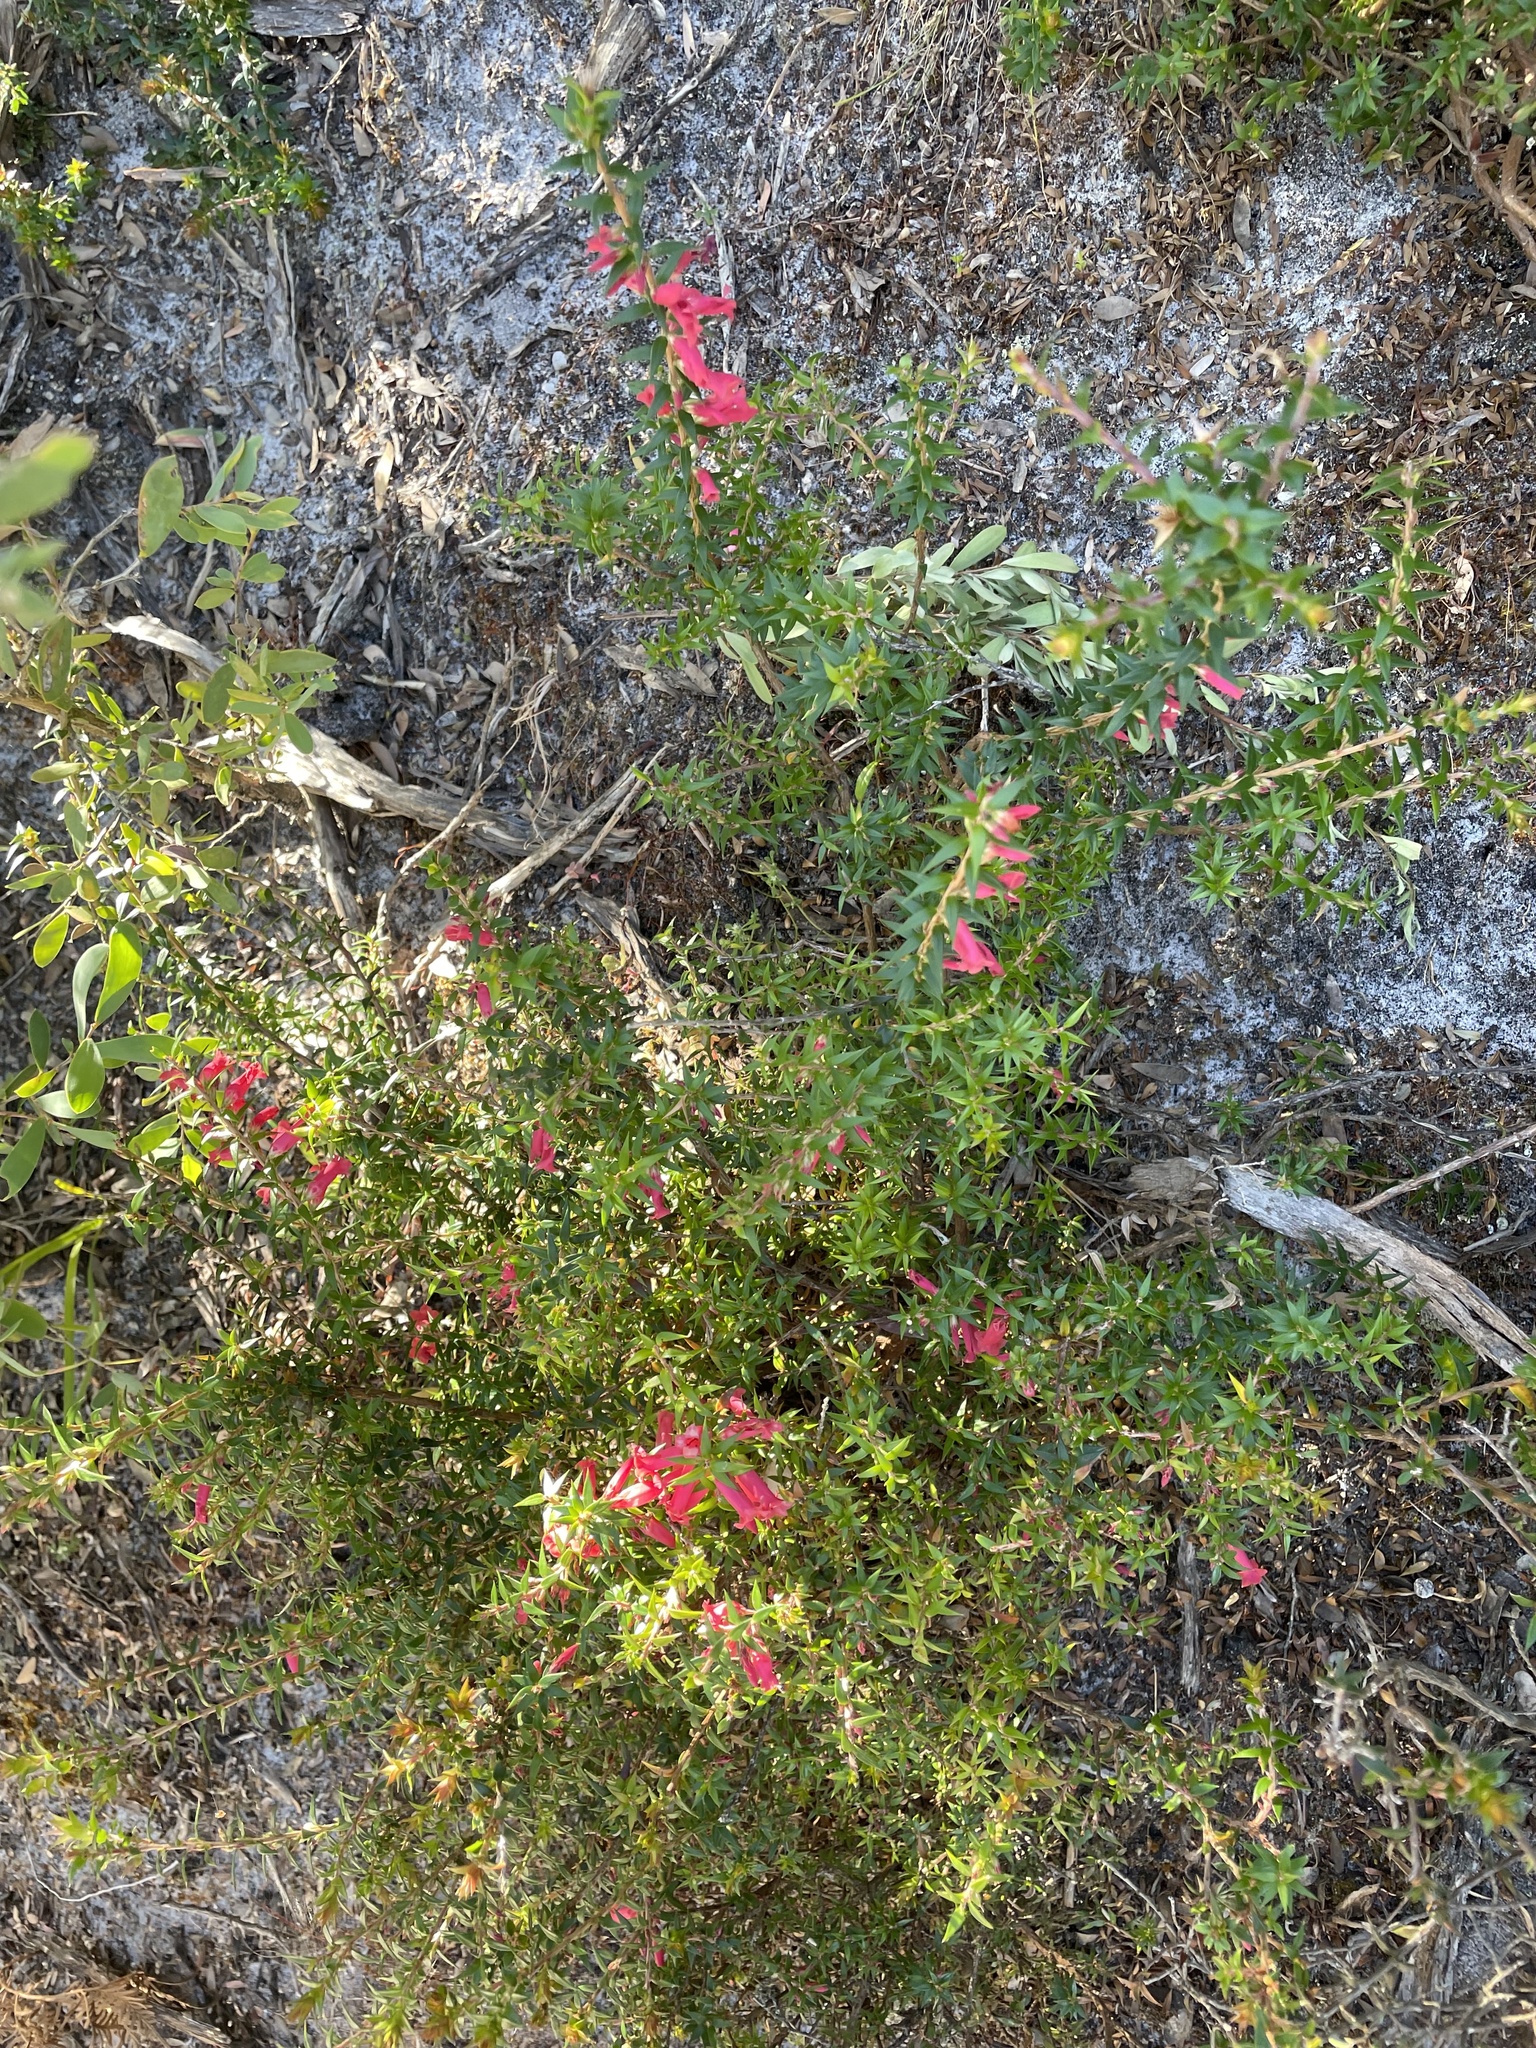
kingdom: Plantae
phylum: Tracheophyta
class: Magnoliopsida
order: Ericales
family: Ericaceae
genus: Epacris
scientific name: Epacris impressa
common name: Common-heath
